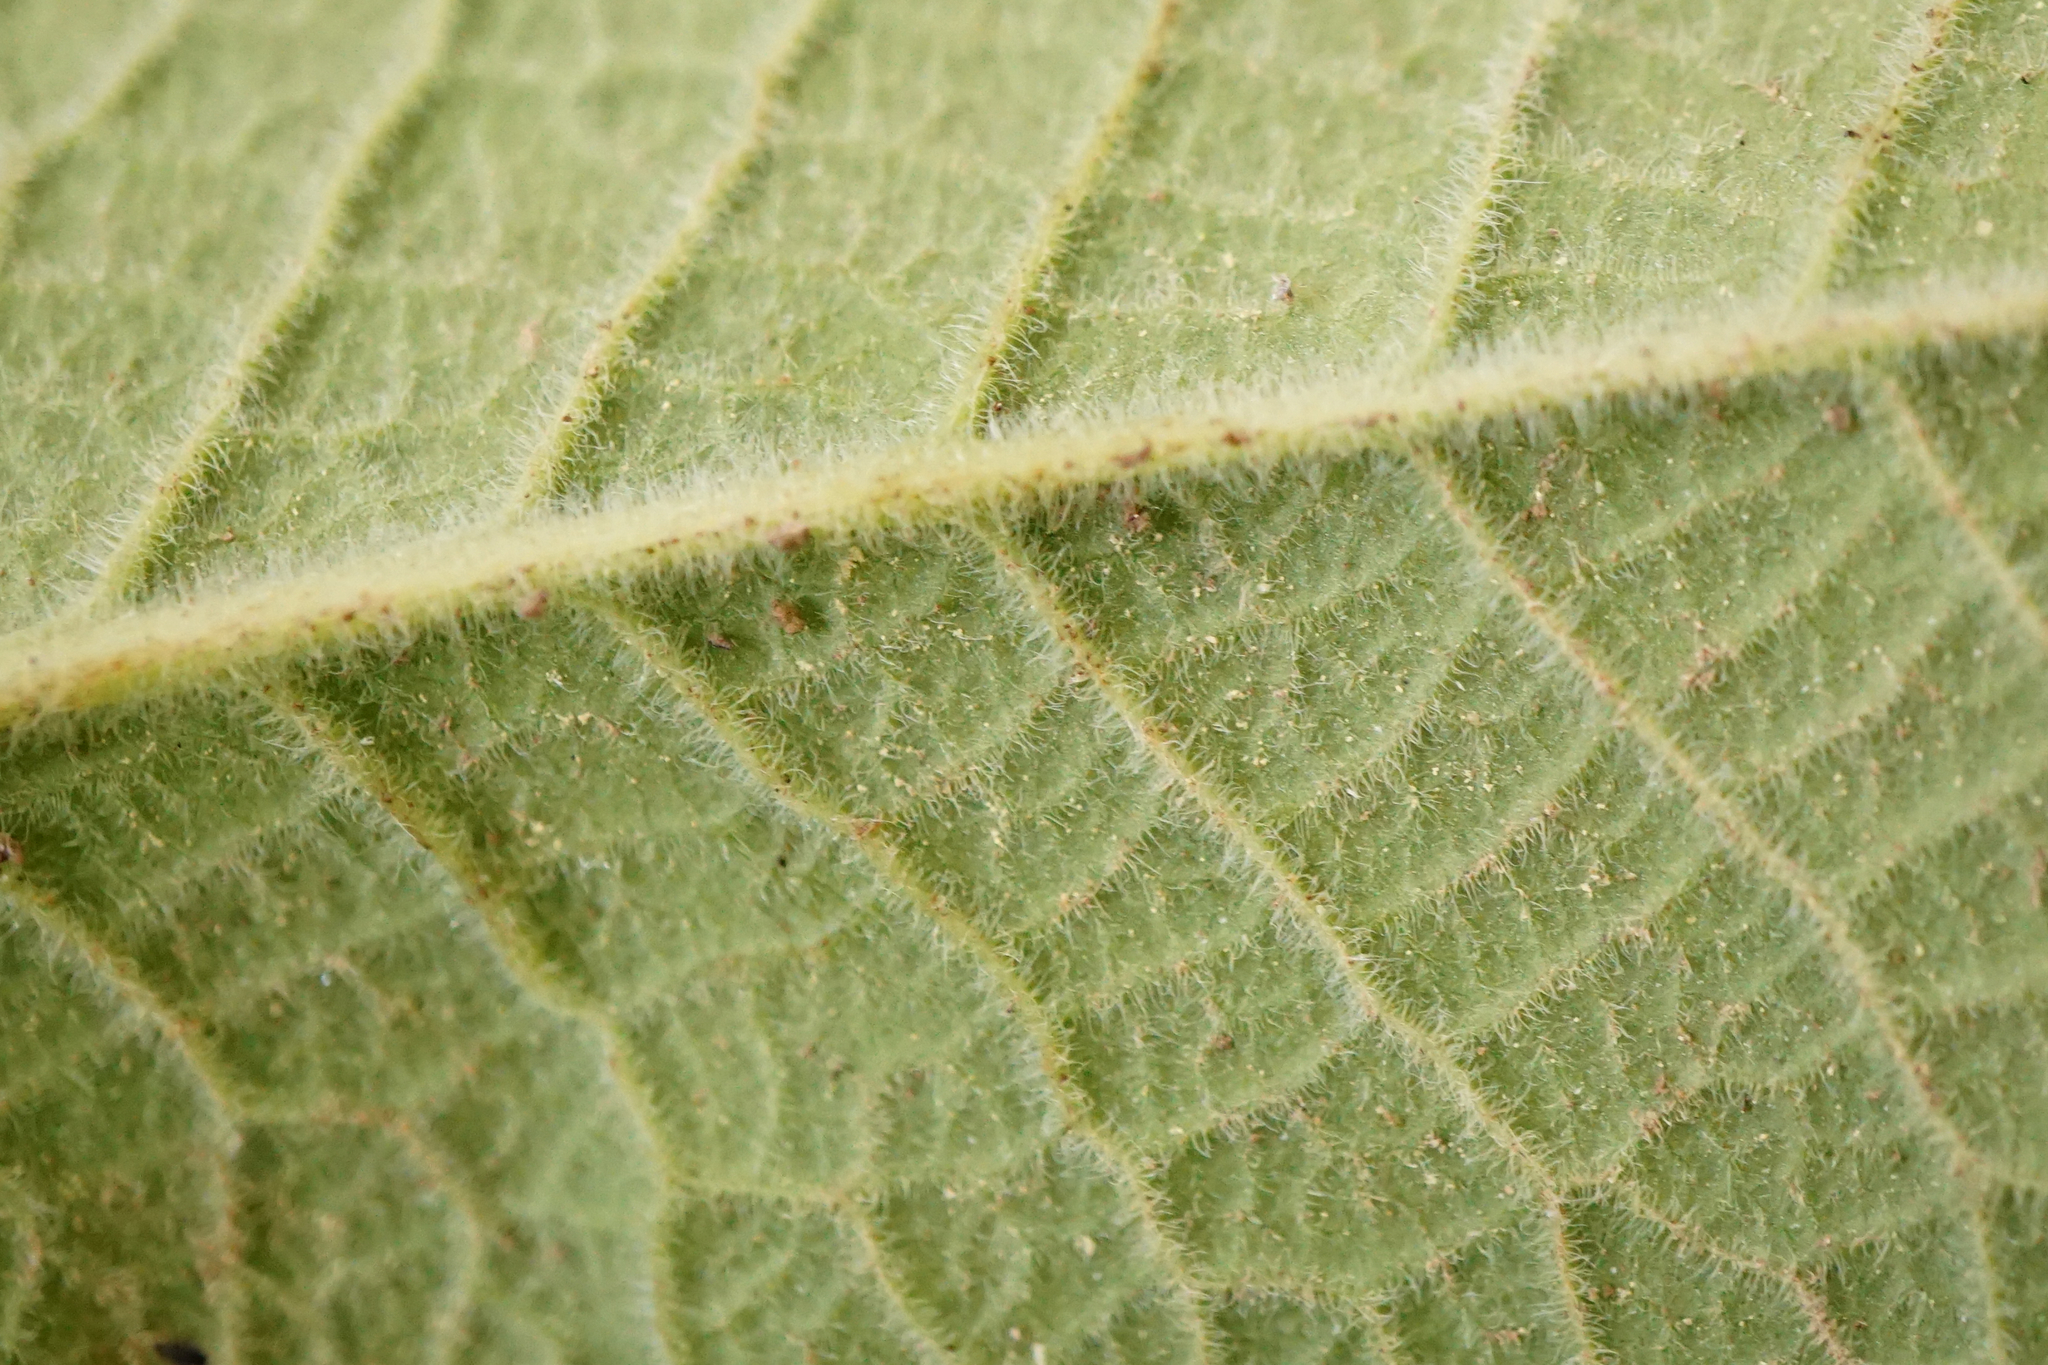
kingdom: Plantae
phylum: Tracheophyta
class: Magnoliopsida
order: Ericales
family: Primulaceae
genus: Primula
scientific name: Primula vulgaris
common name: Primrose
